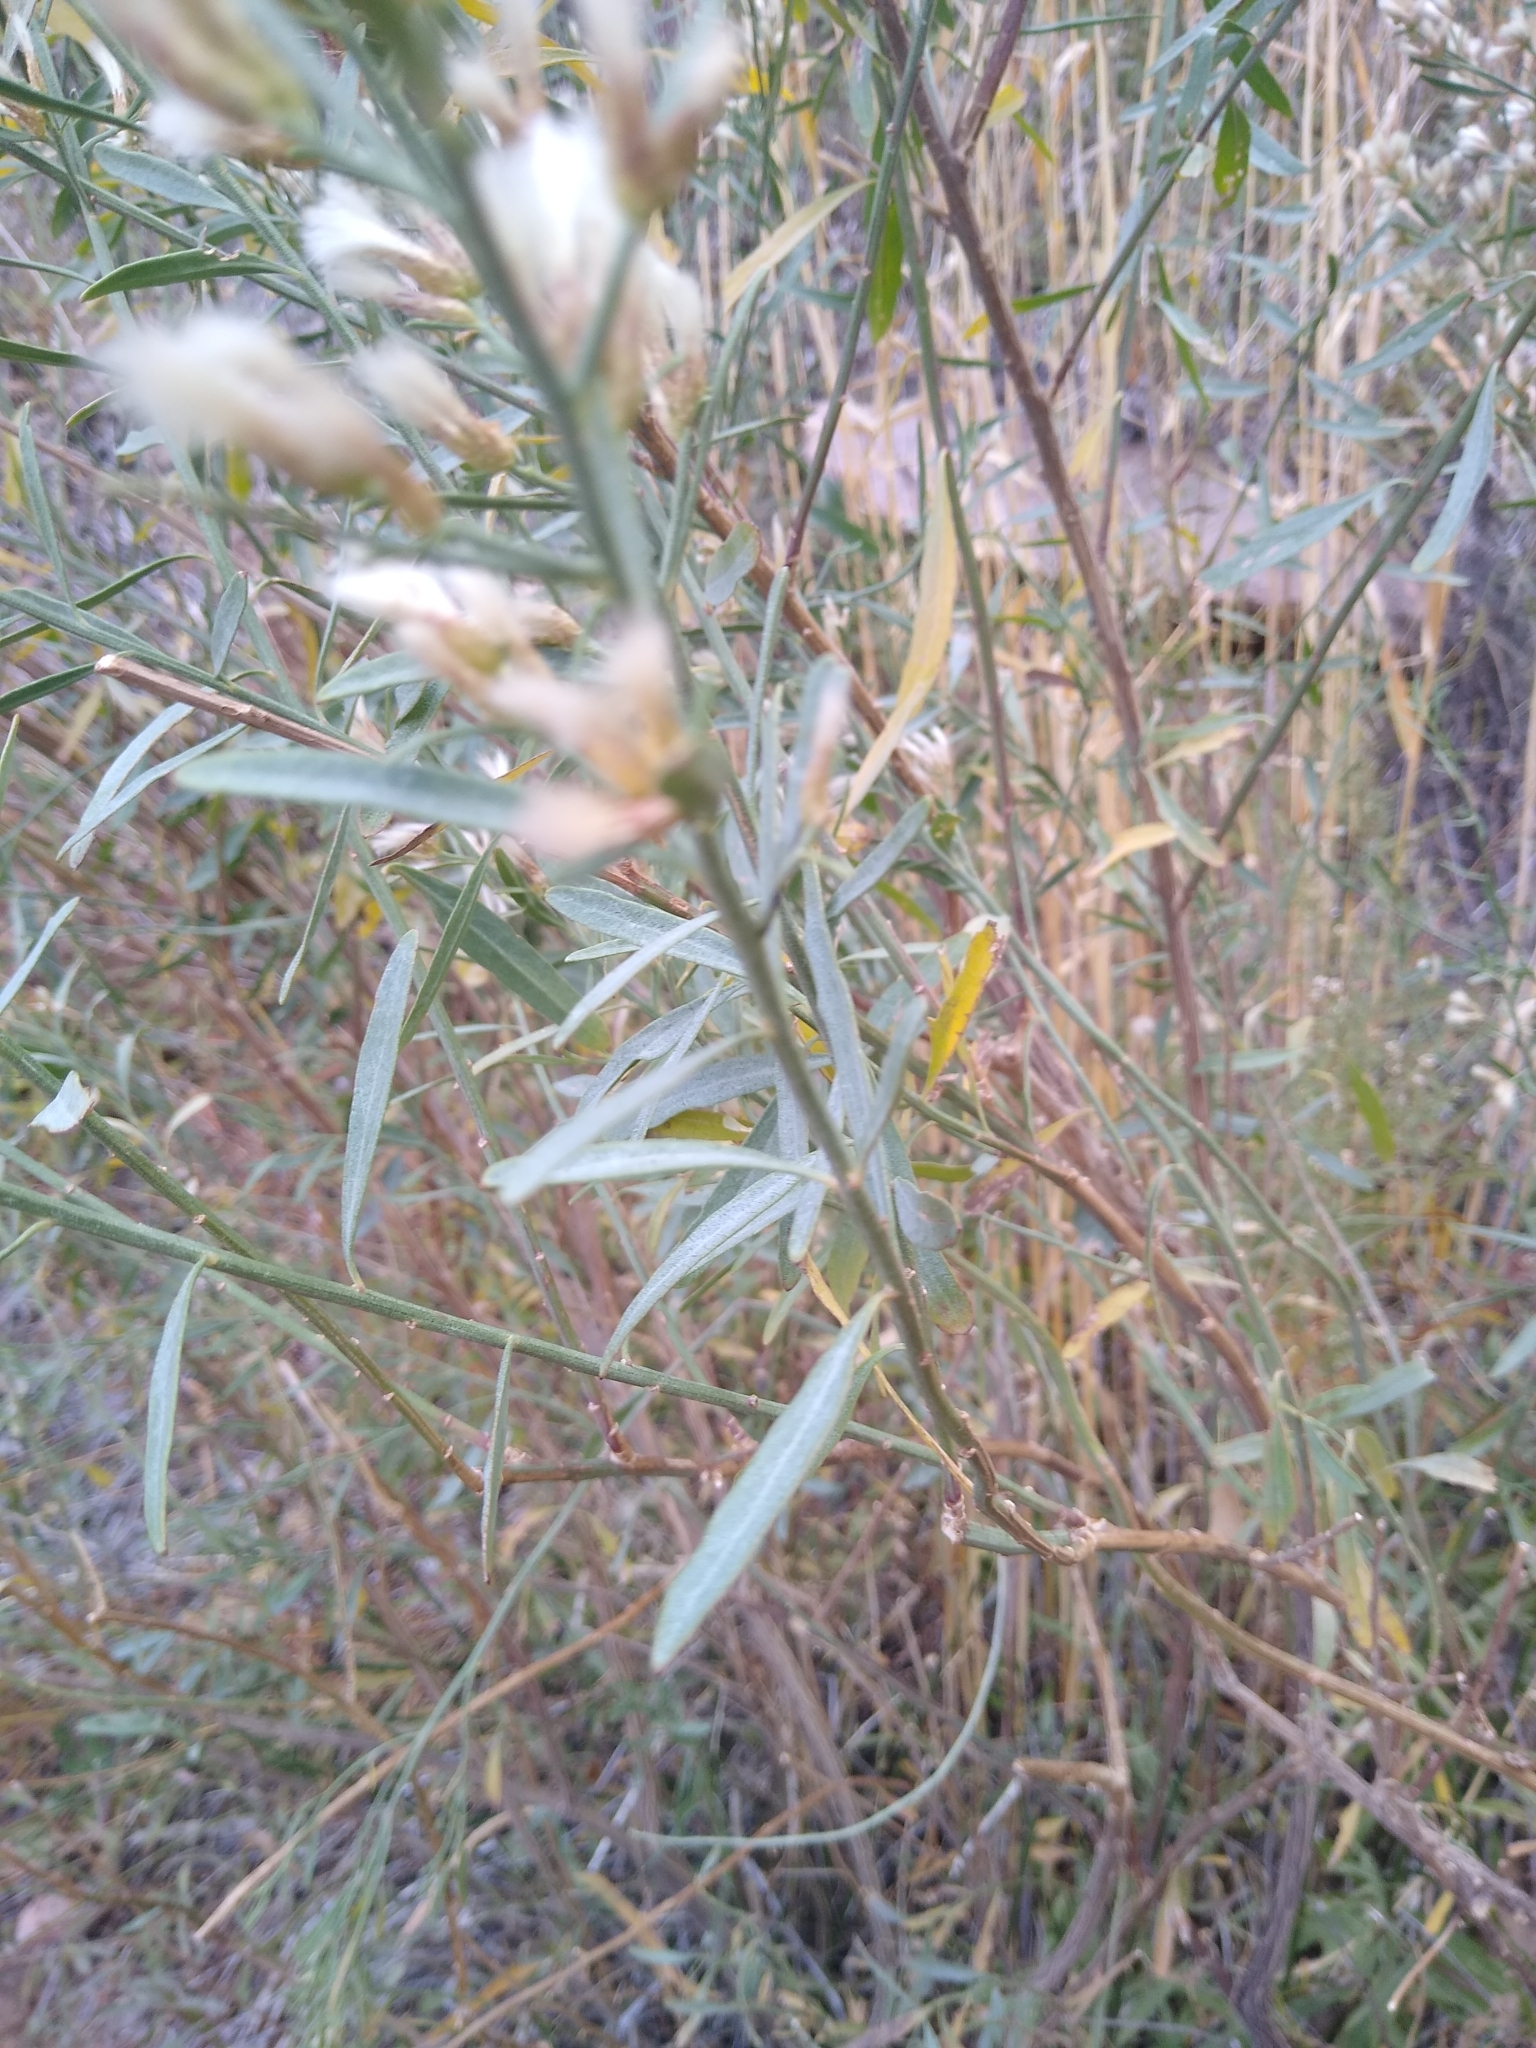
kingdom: Plantae
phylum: Tracheophyta
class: Magnoliopsida
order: Asterales
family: Asteraceae
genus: Eurybia
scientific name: Eurybia glauca
